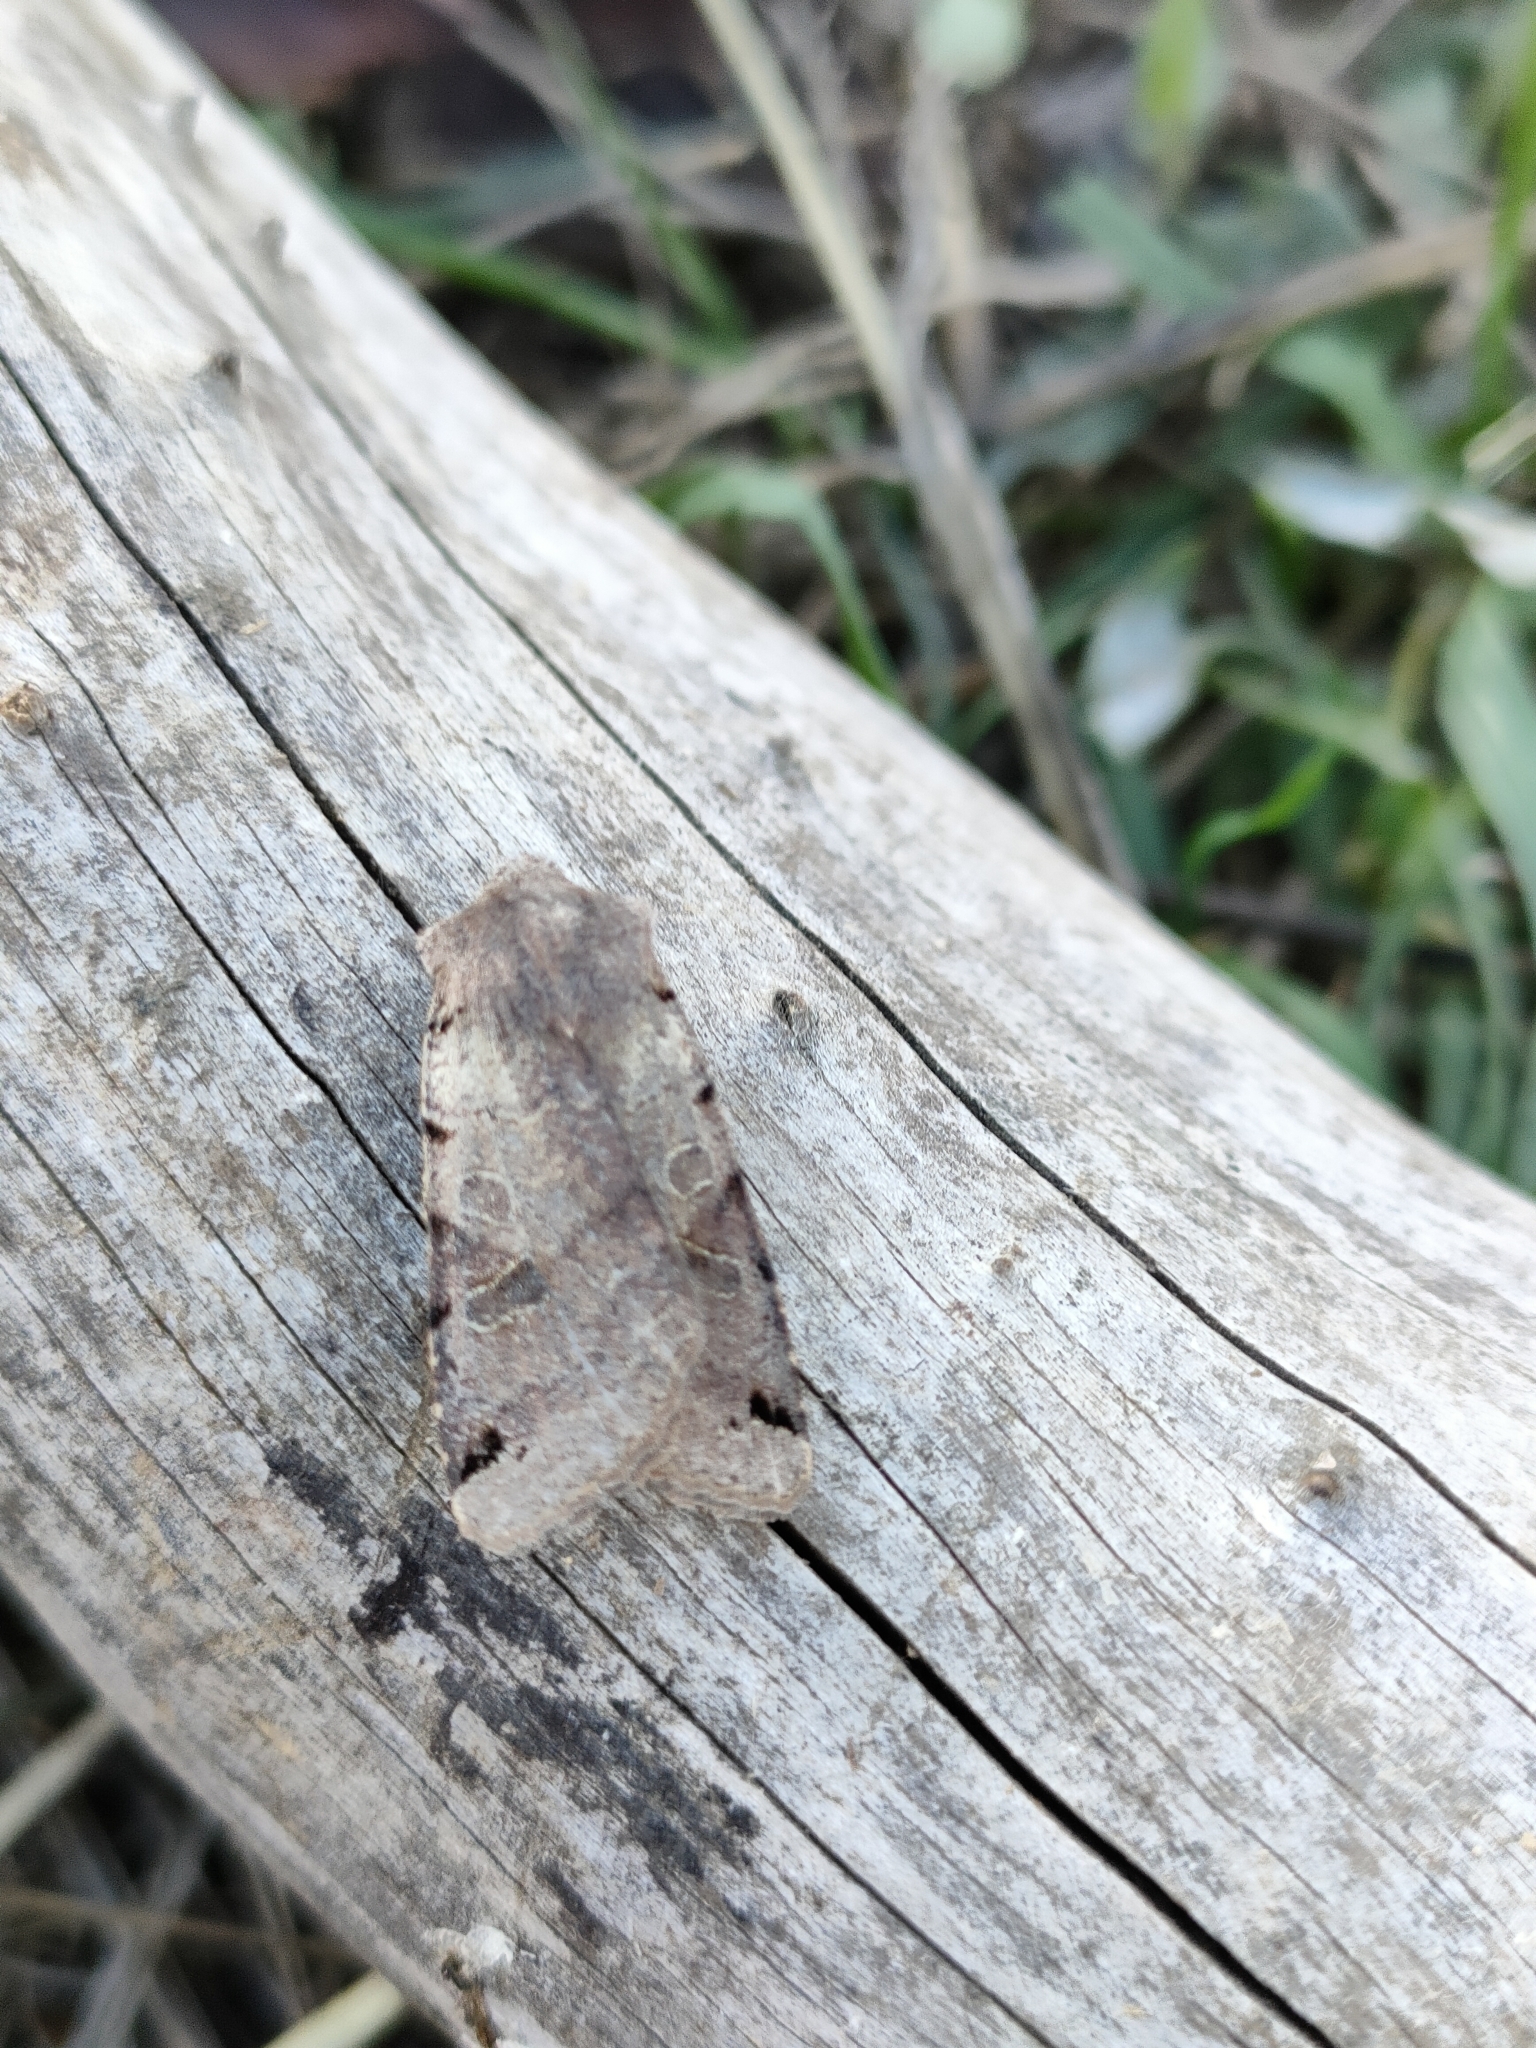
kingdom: Animalia
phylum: Arthropoda
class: Insecta
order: Lepidoptera
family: Noctuidae
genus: Agrochola
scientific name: Agrochola litura
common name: Brown-spot pinion
